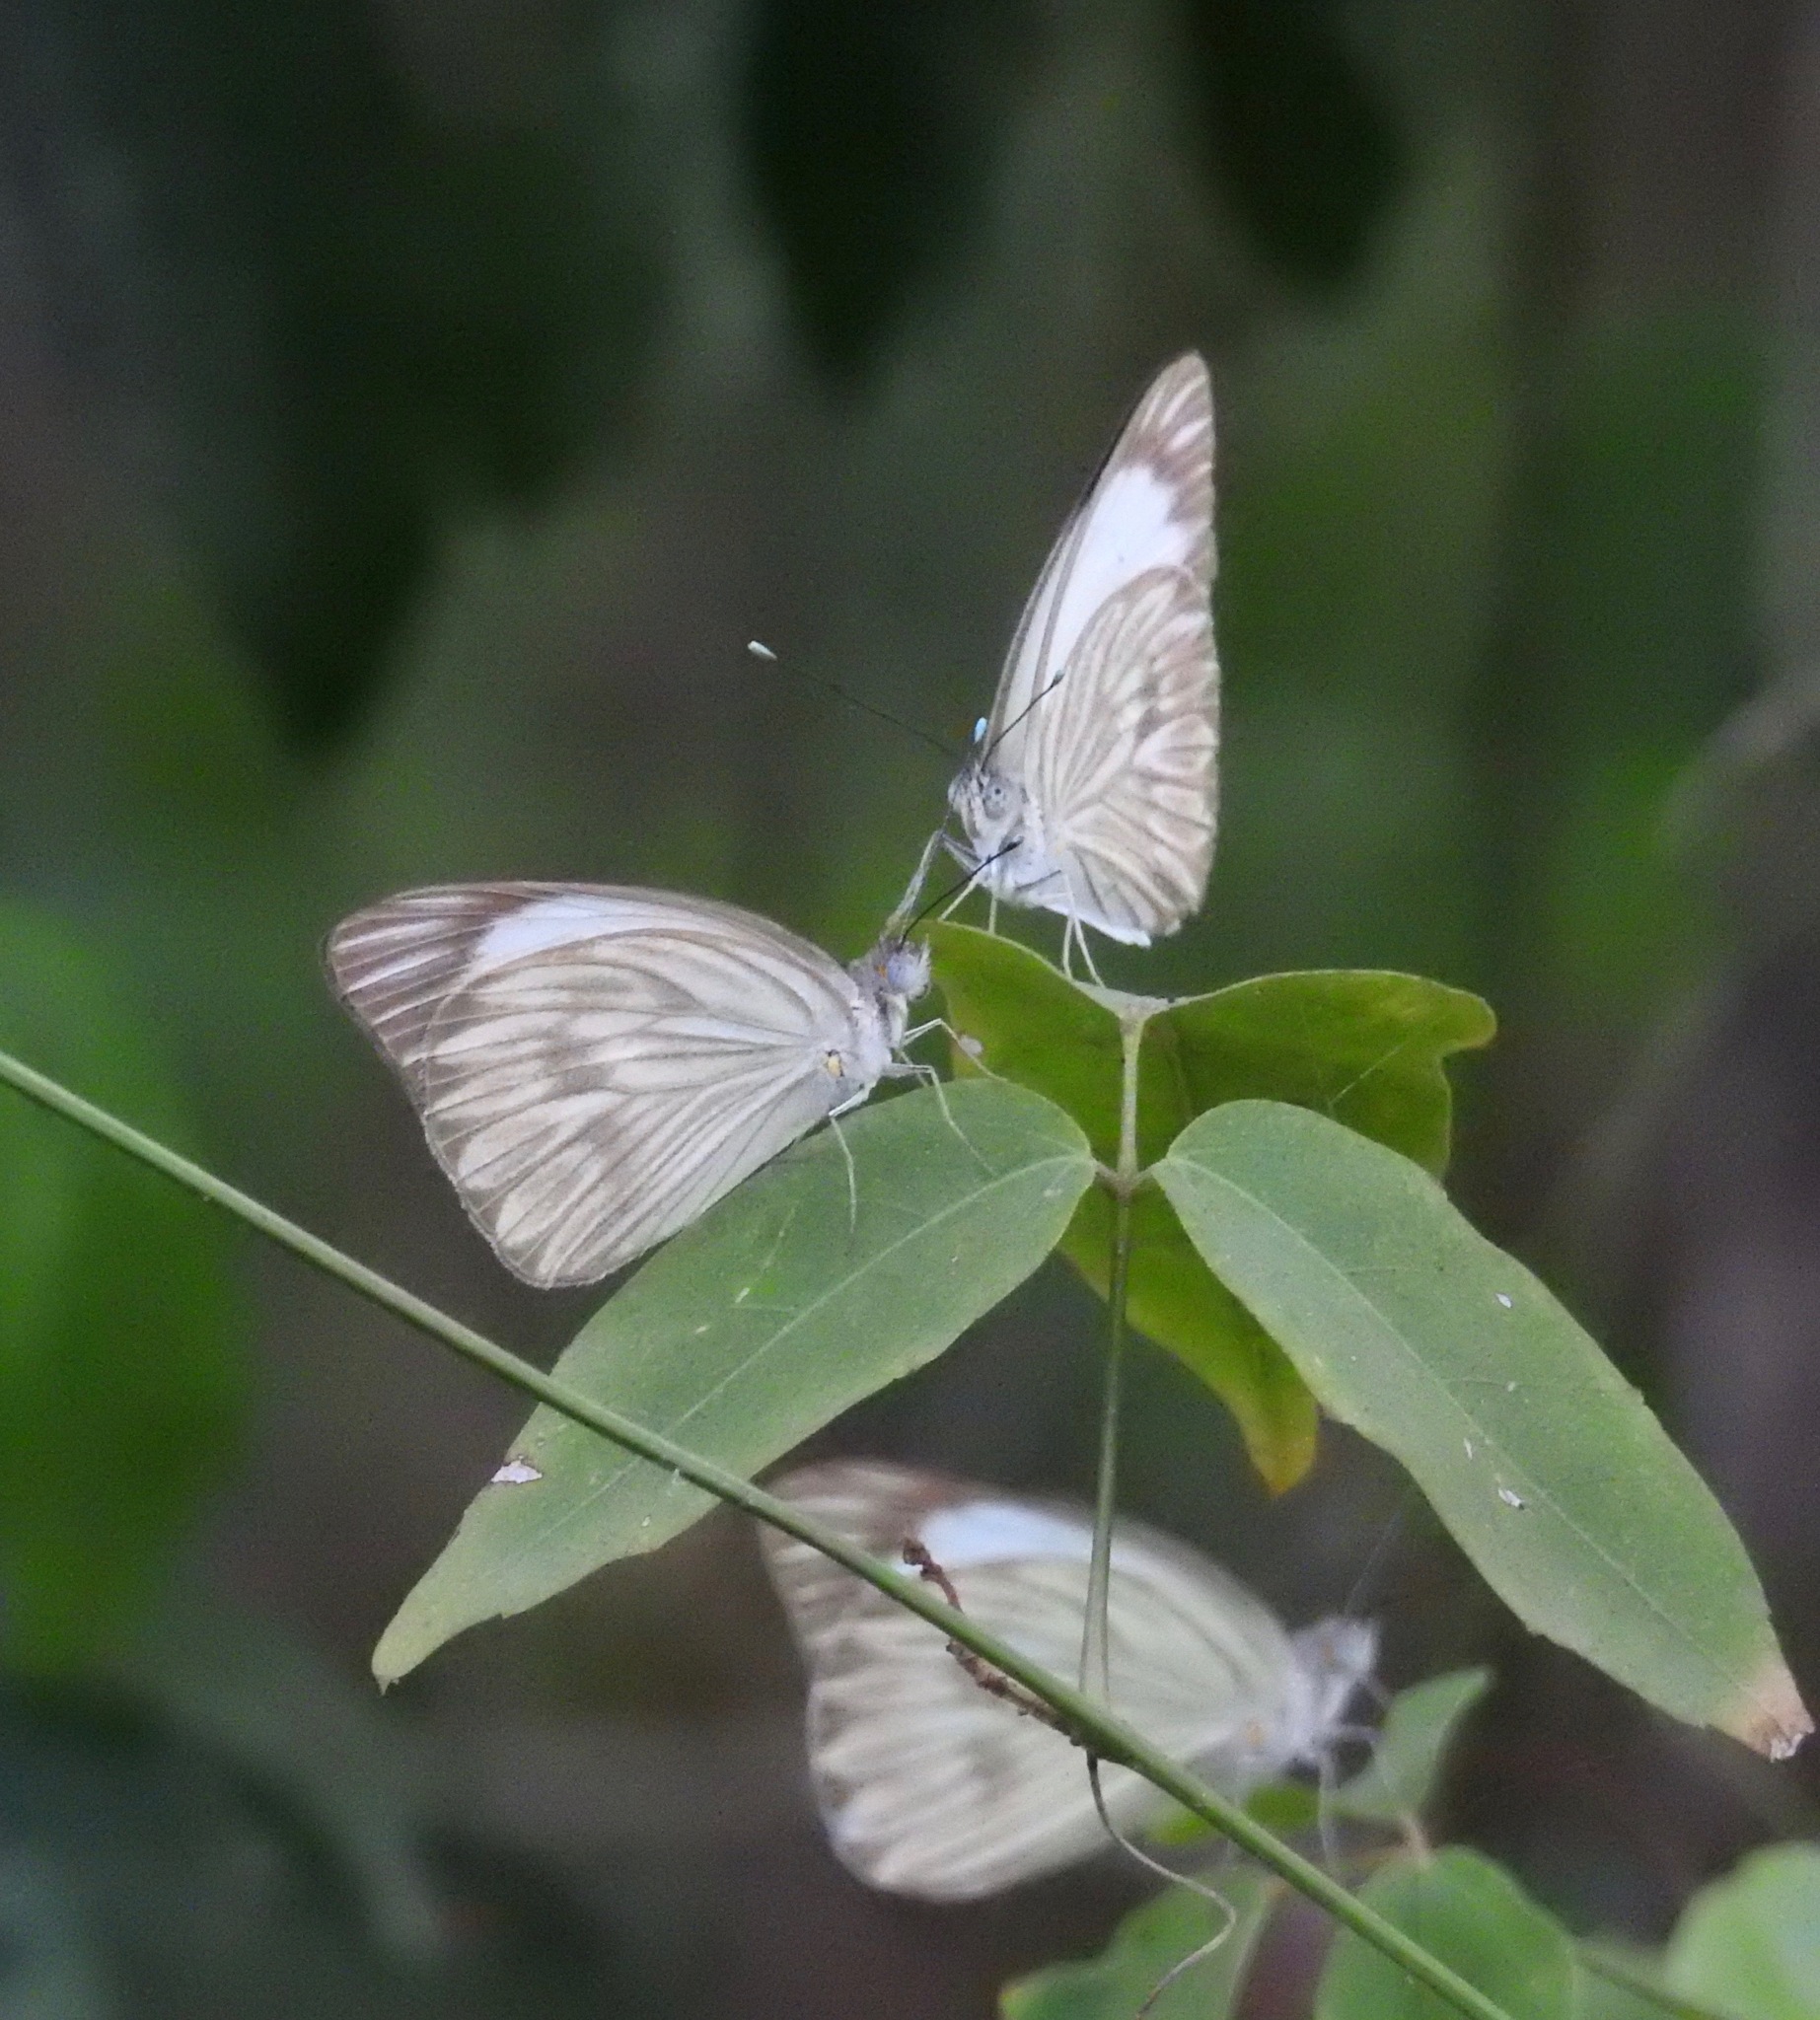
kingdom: Animalia
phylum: Arthropoda
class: Insecta
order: Lepidoptera
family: Pieridae
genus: Ascia
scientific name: Ascia monuste
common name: Great southern white
